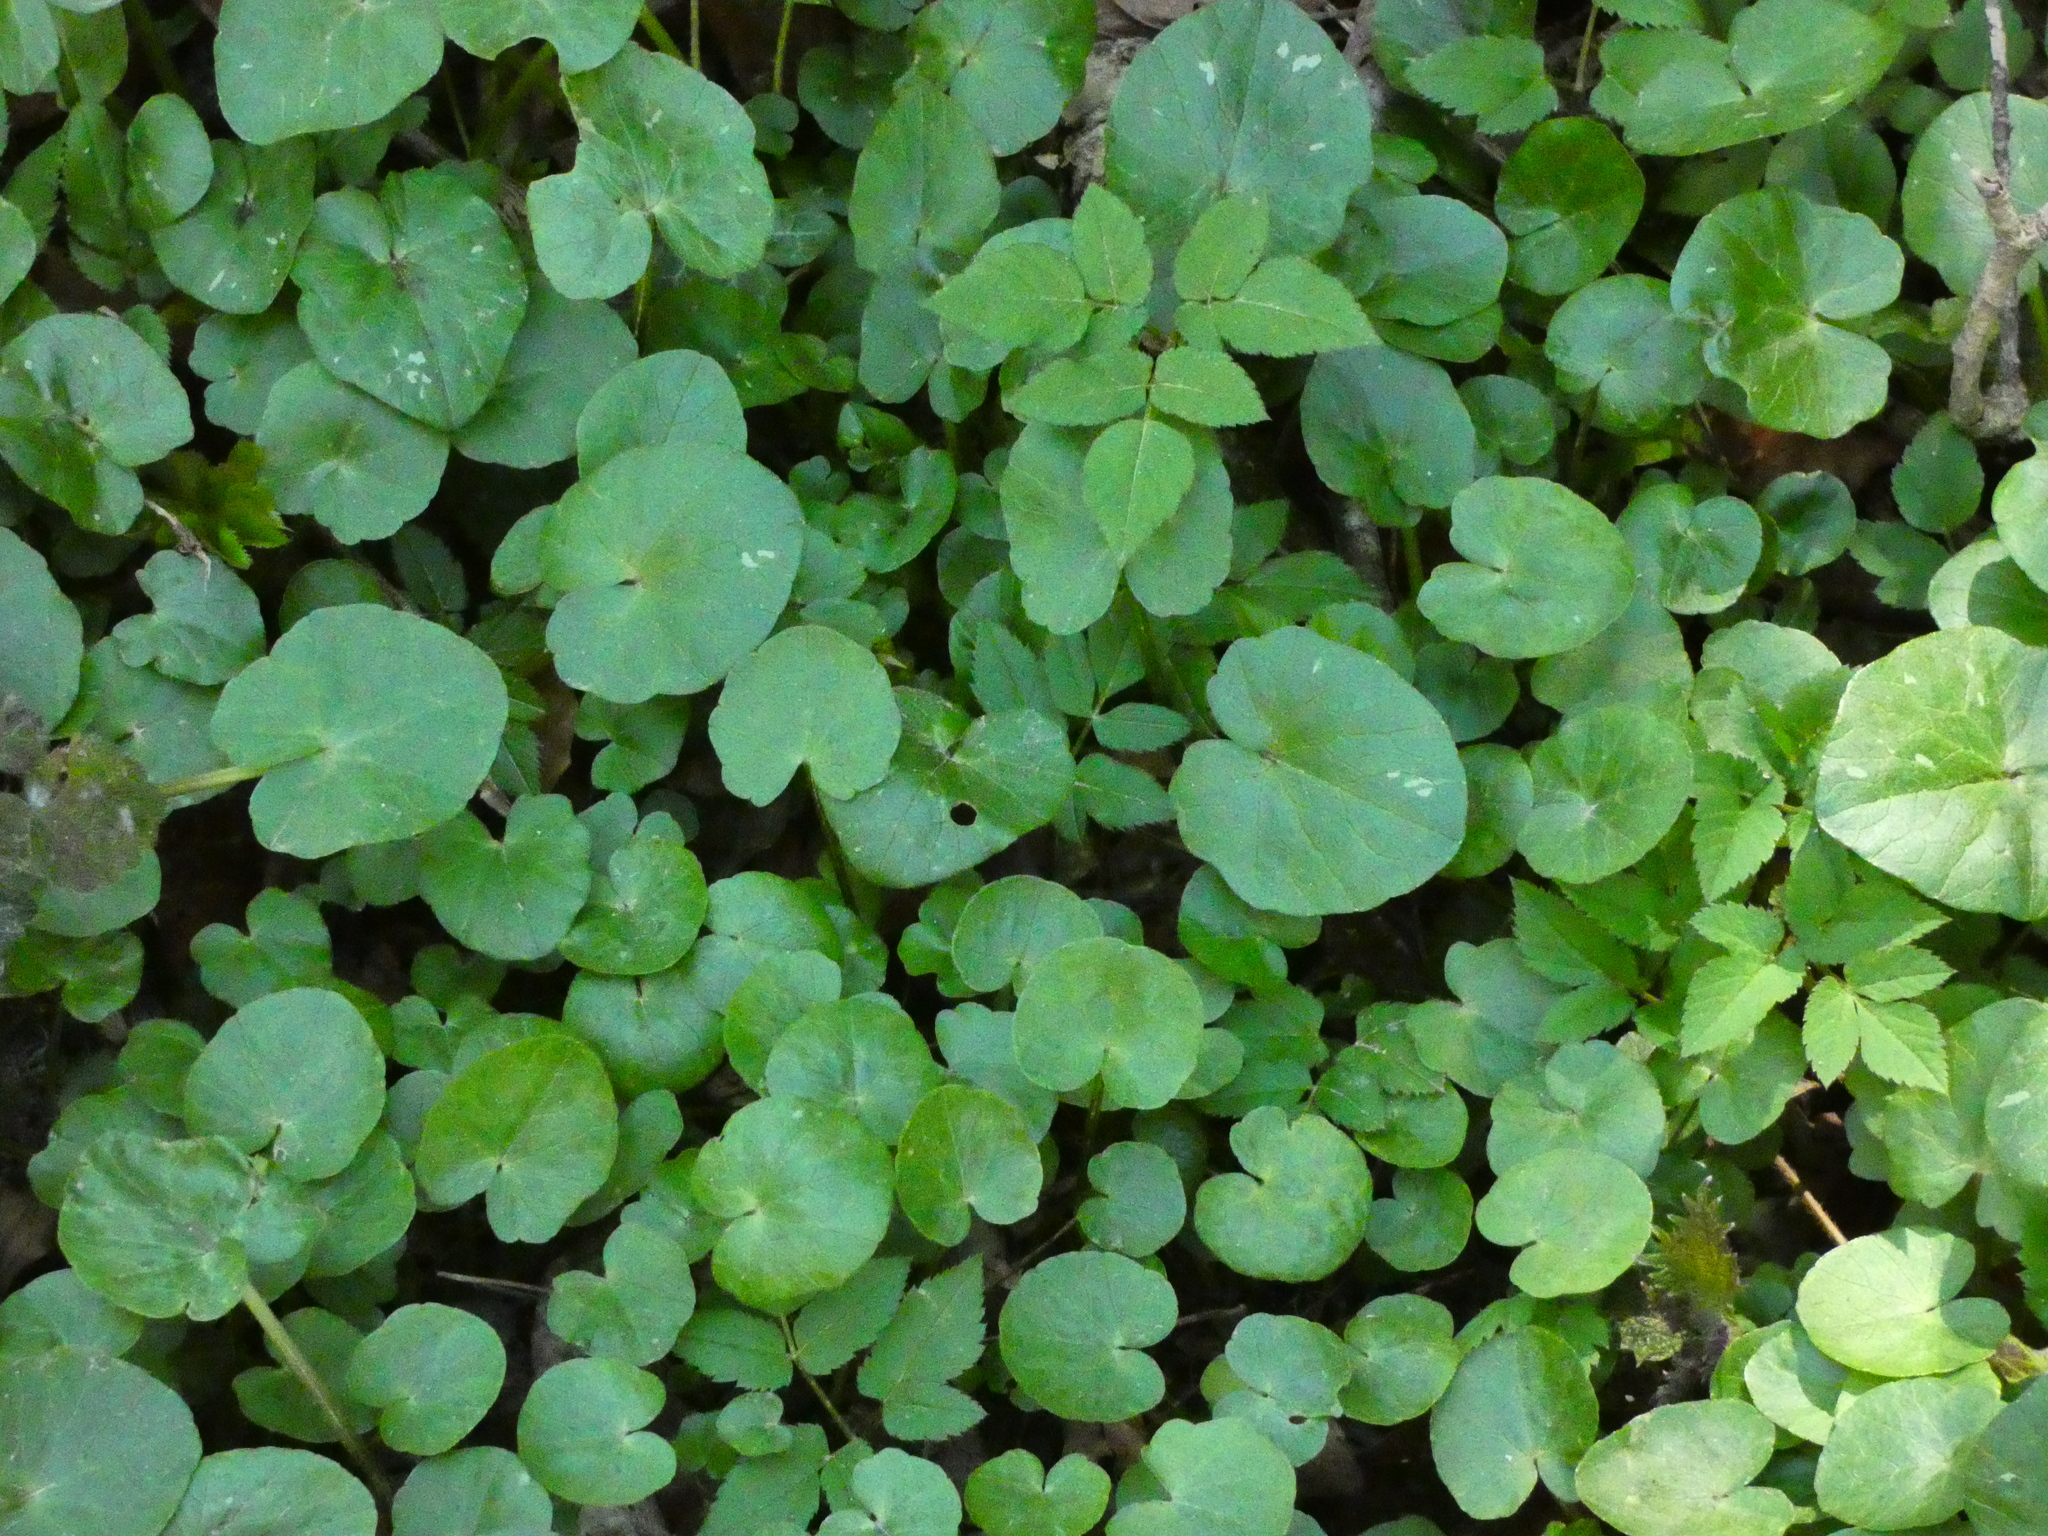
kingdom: Plantae
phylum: Tracheophyta
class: Magnoliopsida
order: Ranunculales
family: Ranunculaceae
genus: Ficaria
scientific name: Ficaria verna
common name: Lesser celandine
